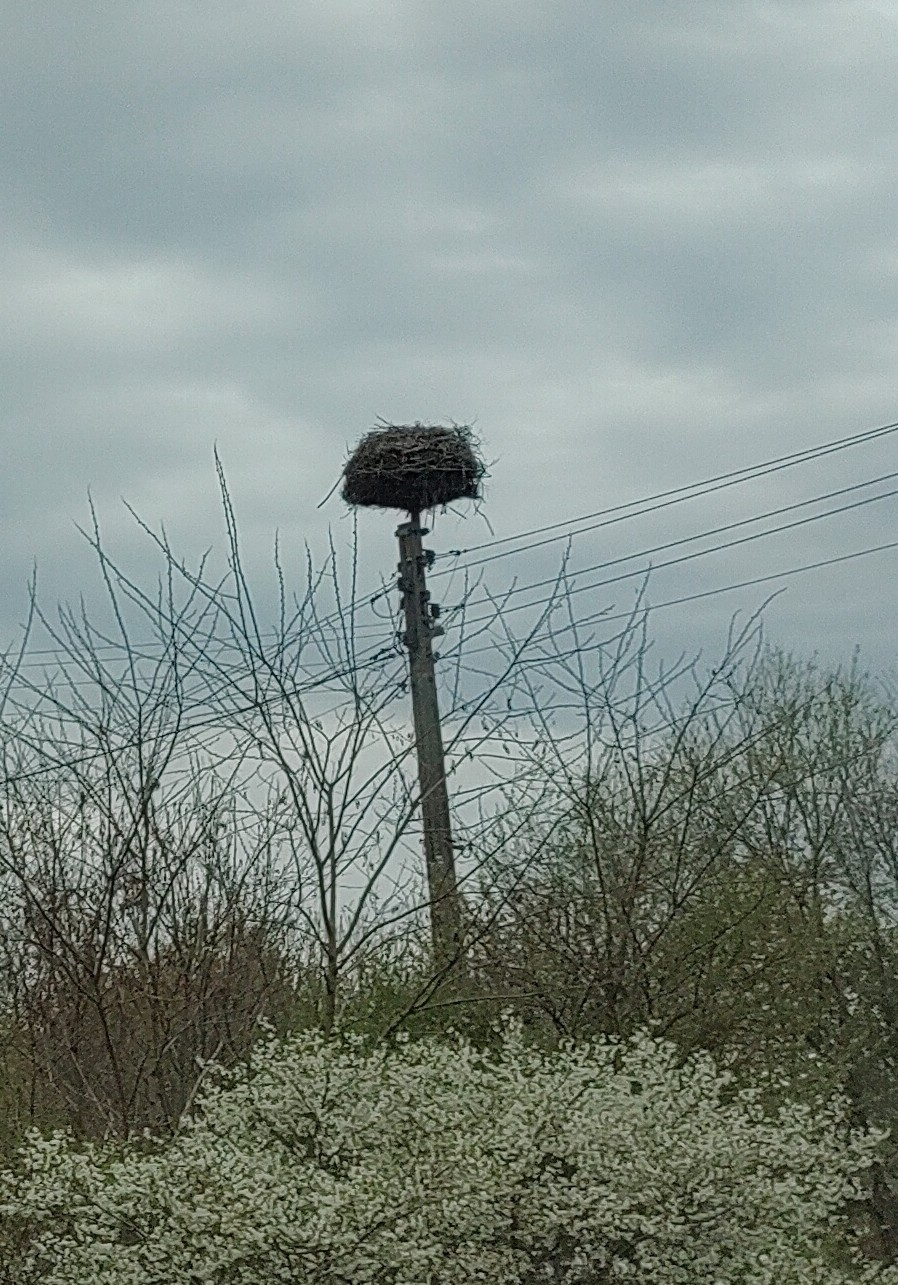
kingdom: Animalia
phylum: Chordata
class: Aves
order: Ciconiiformes
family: Ciconiidae
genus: Ciconia
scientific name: Ciconia ciconia
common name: White stork
